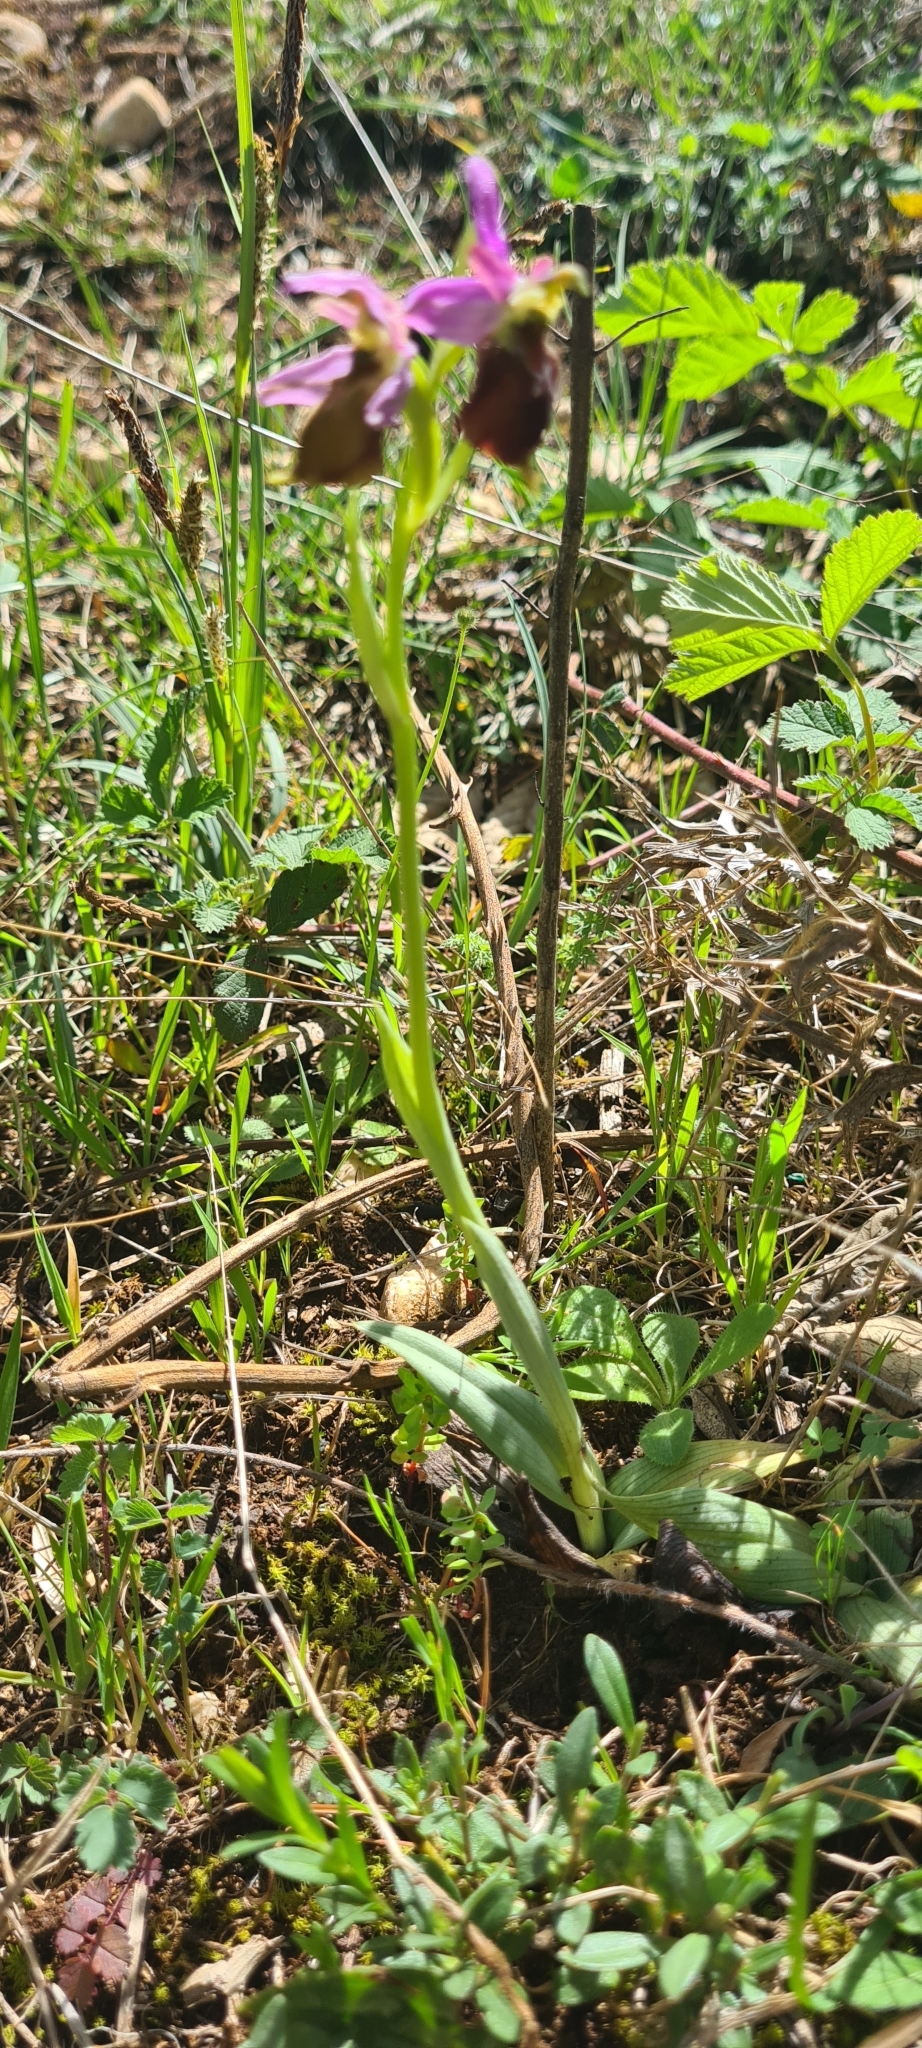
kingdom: Plantae
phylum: Tracheophyta
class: Liliopsida
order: Asparagales
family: Orchidaceae
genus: Ophrys
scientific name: Ophrys argolica
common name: Argolic ophrys
